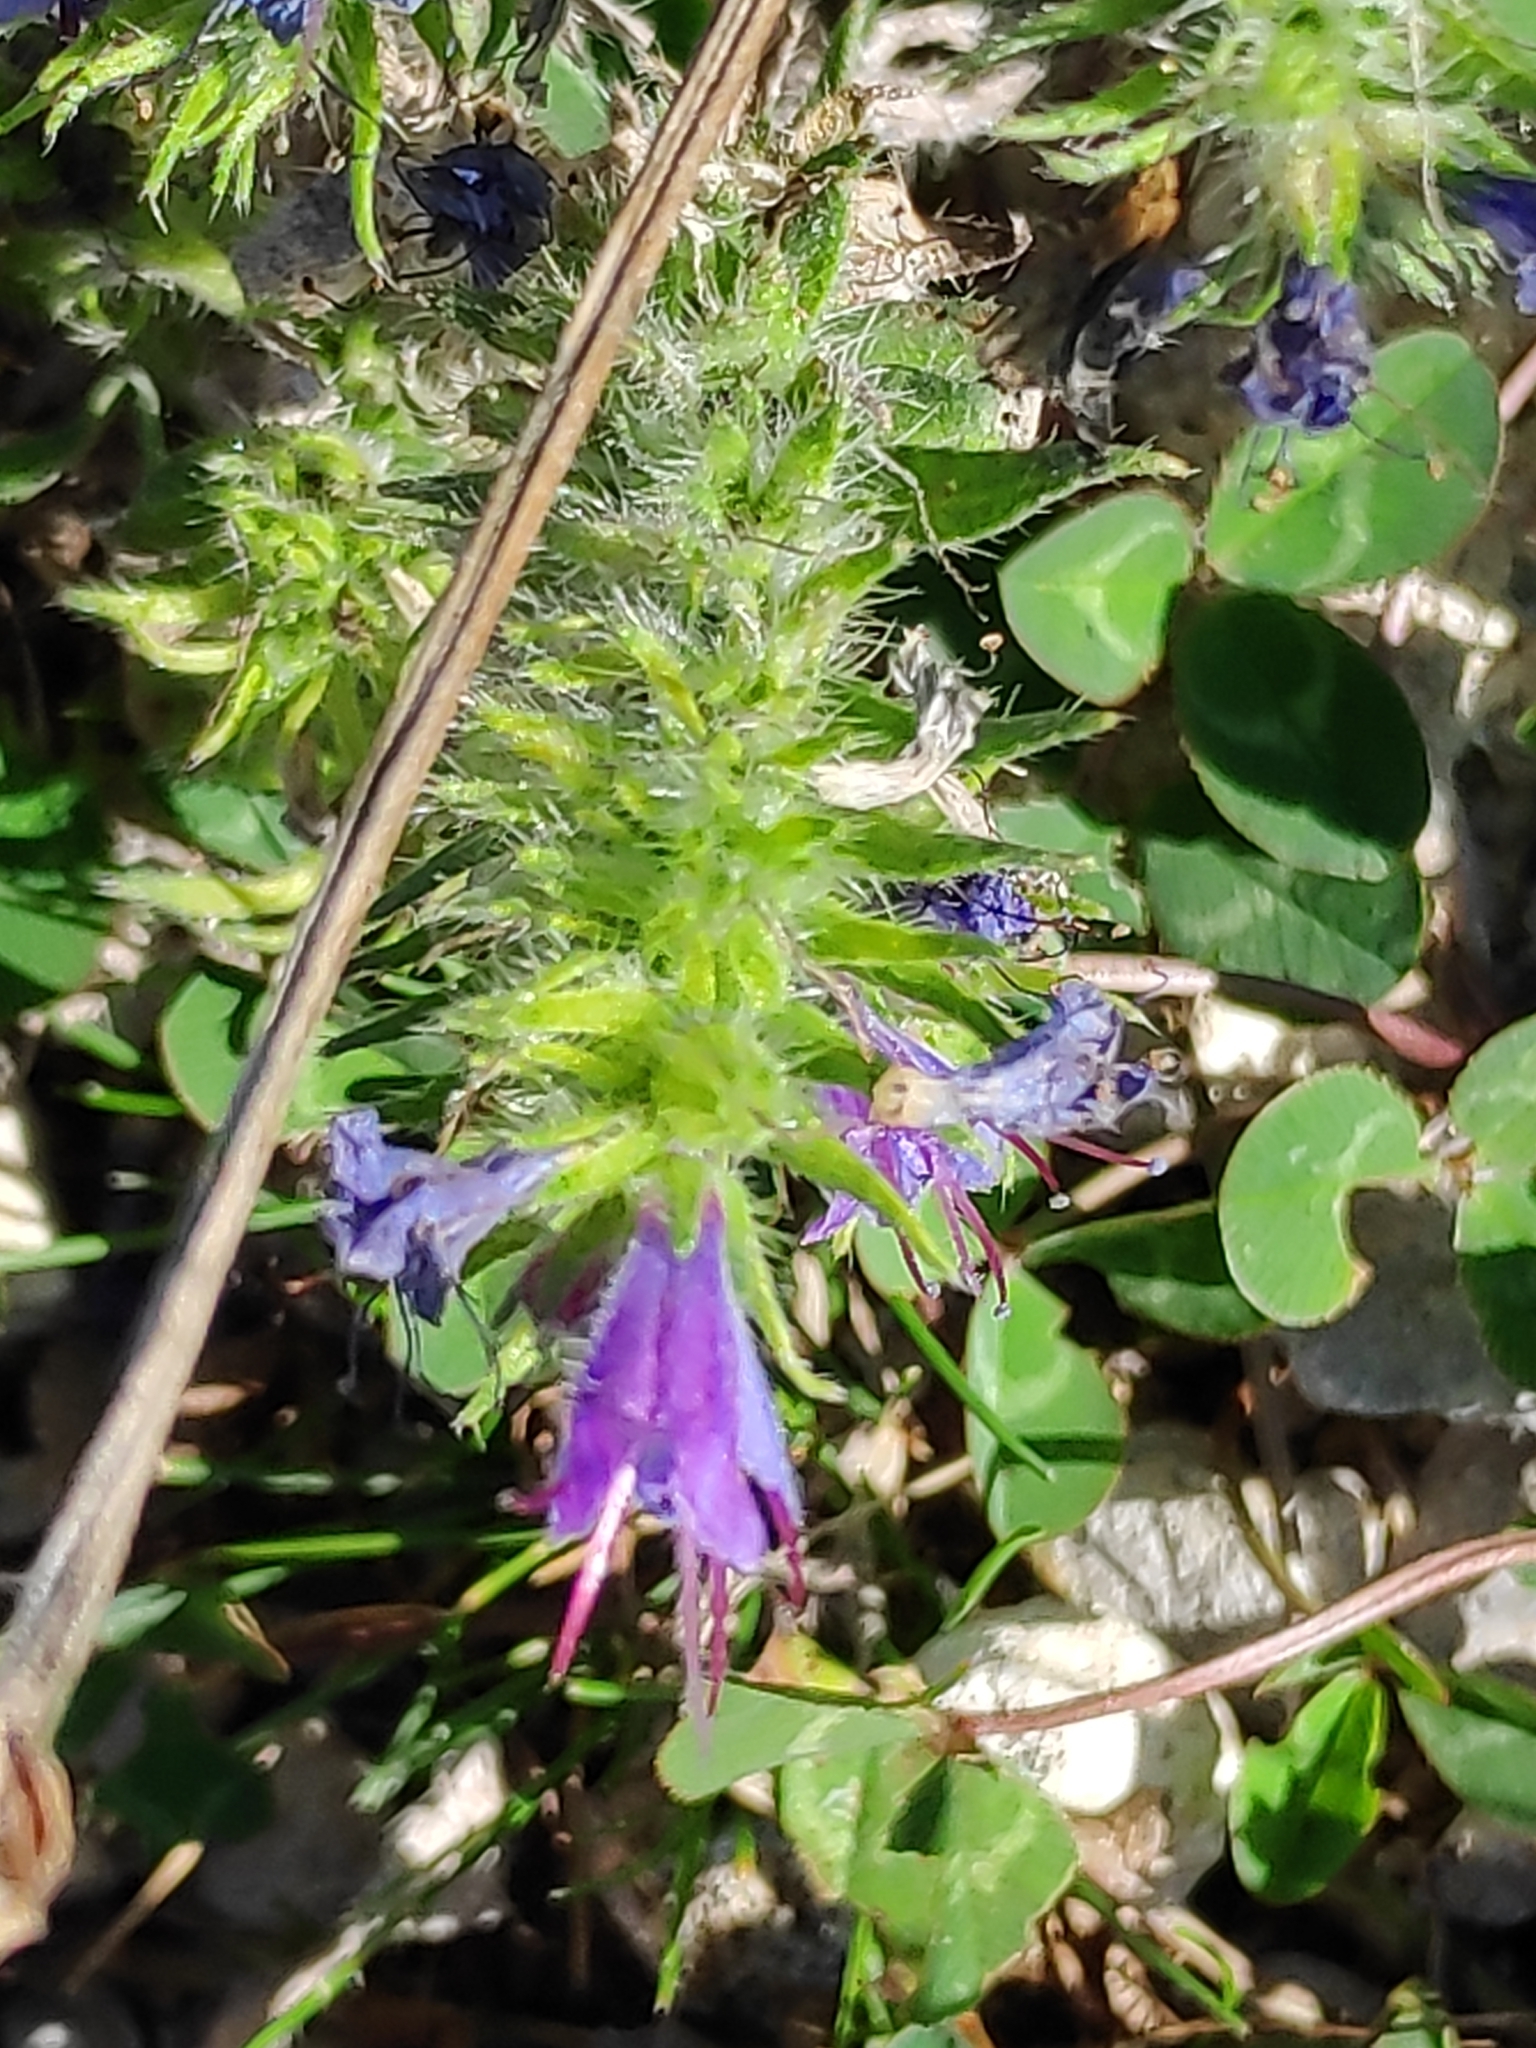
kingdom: Plantae
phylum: Tracheophyta
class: Magnoliopsida
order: Boraginales
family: Boraginaceae
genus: Echium
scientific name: Echium vulgare
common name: Common viper's bugloss
